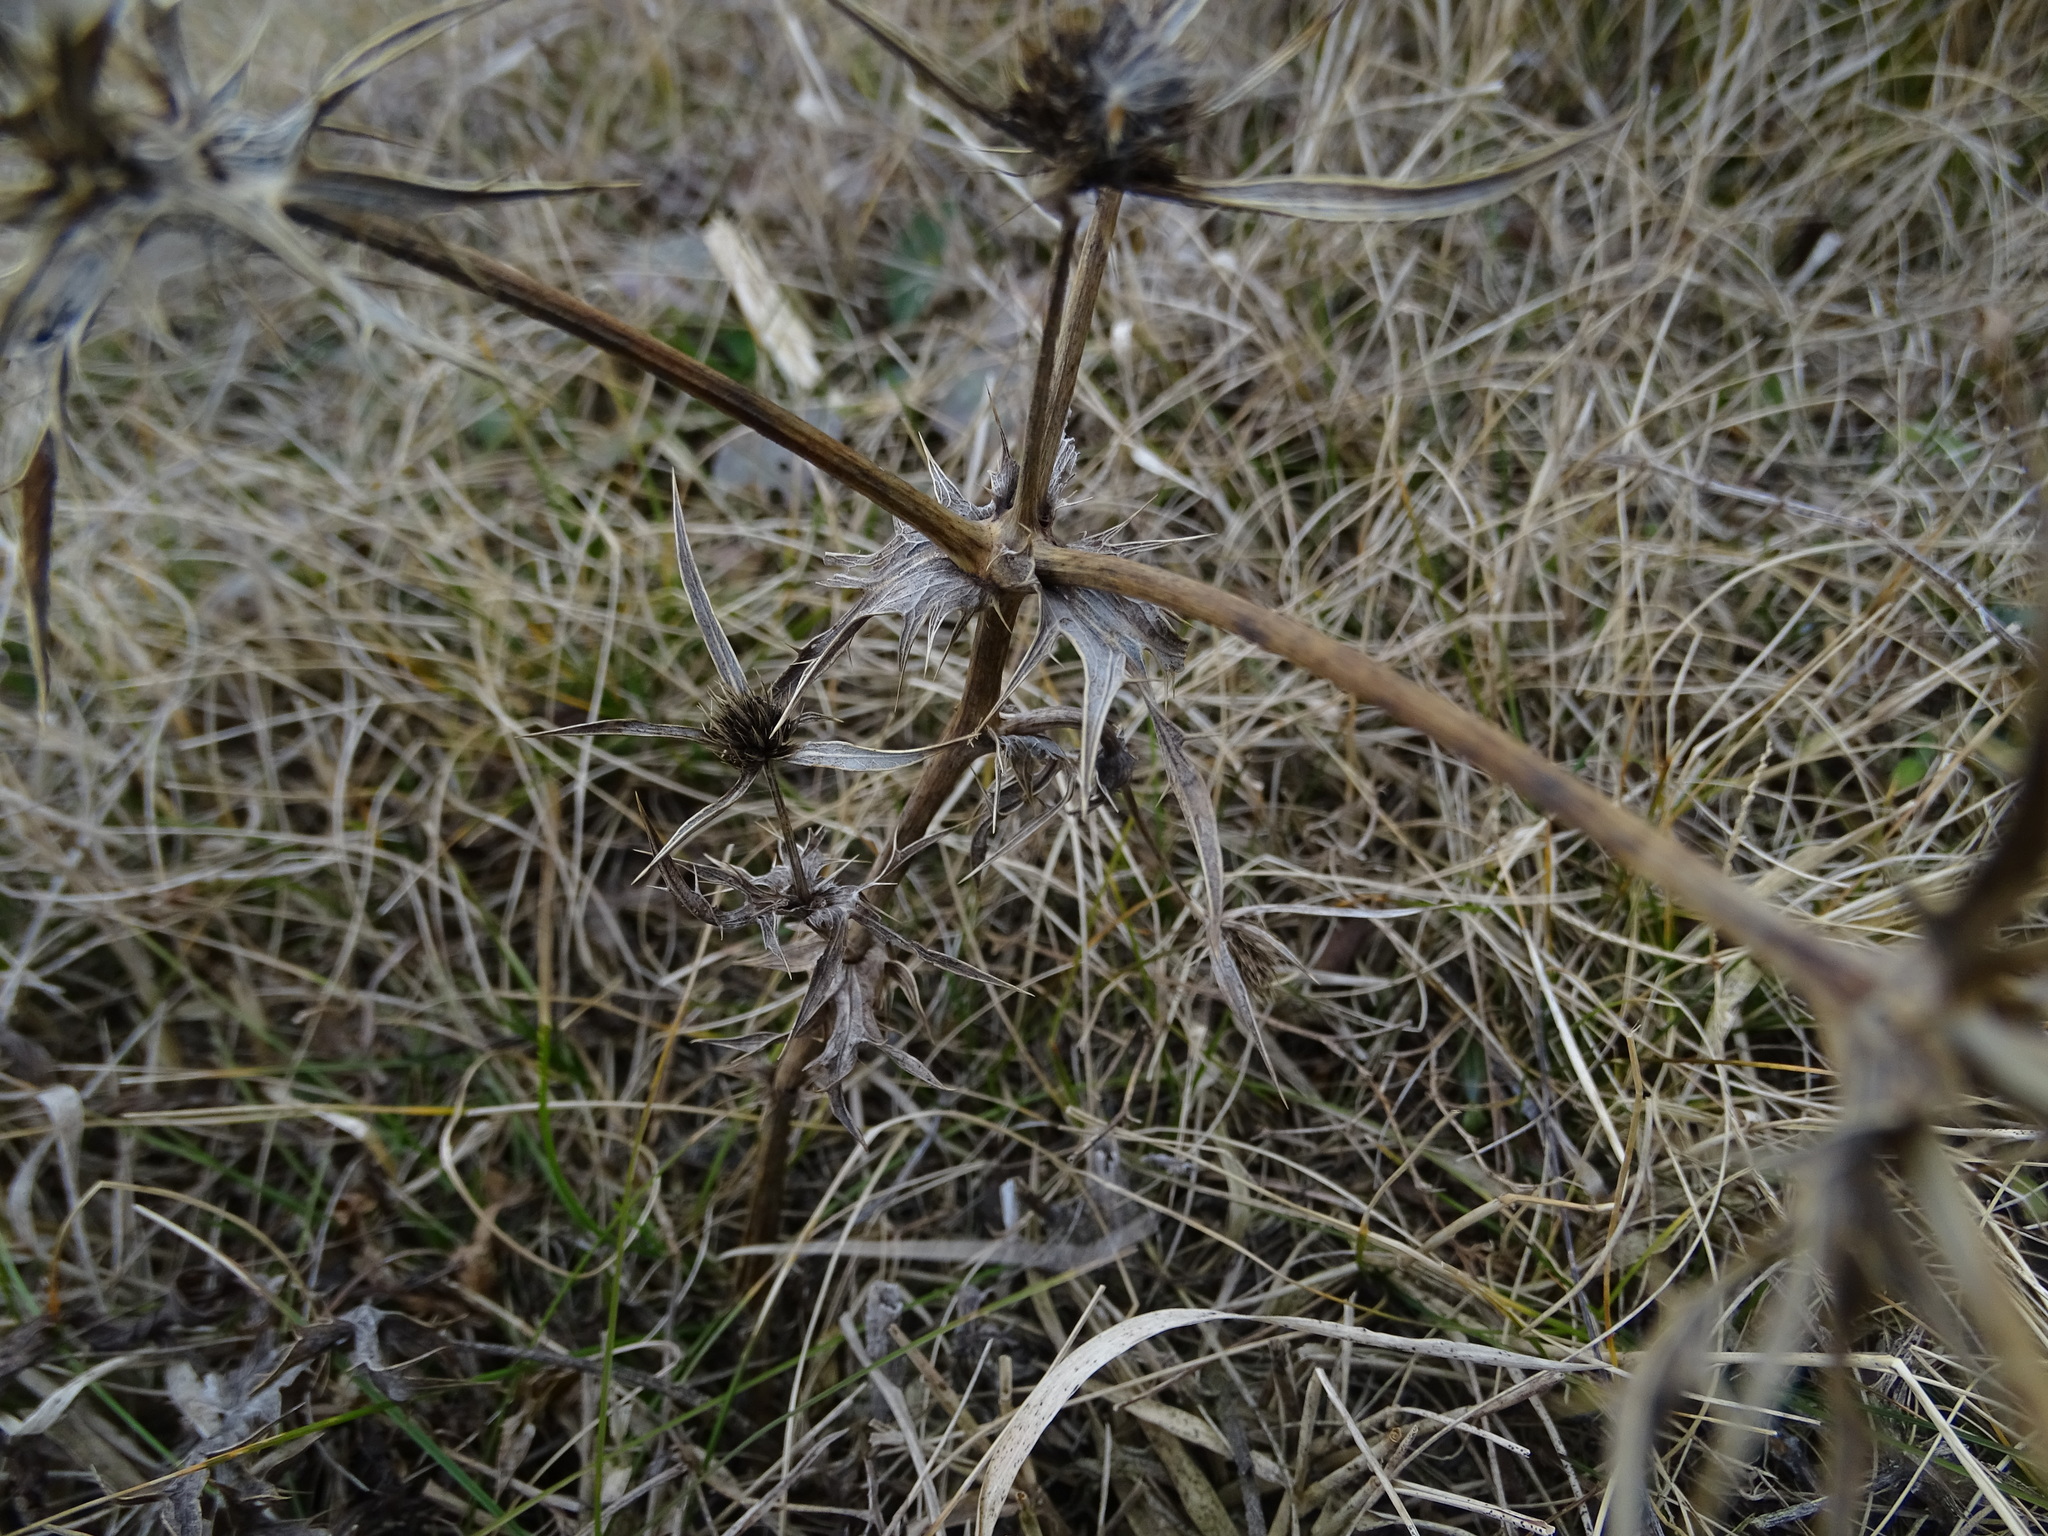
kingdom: Plantae
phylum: Tracheophyta
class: Magnoliopsida
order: Apiales
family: Apiaceae
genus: Eryngium
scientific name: Eryngium campestre
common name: Field eryngo
